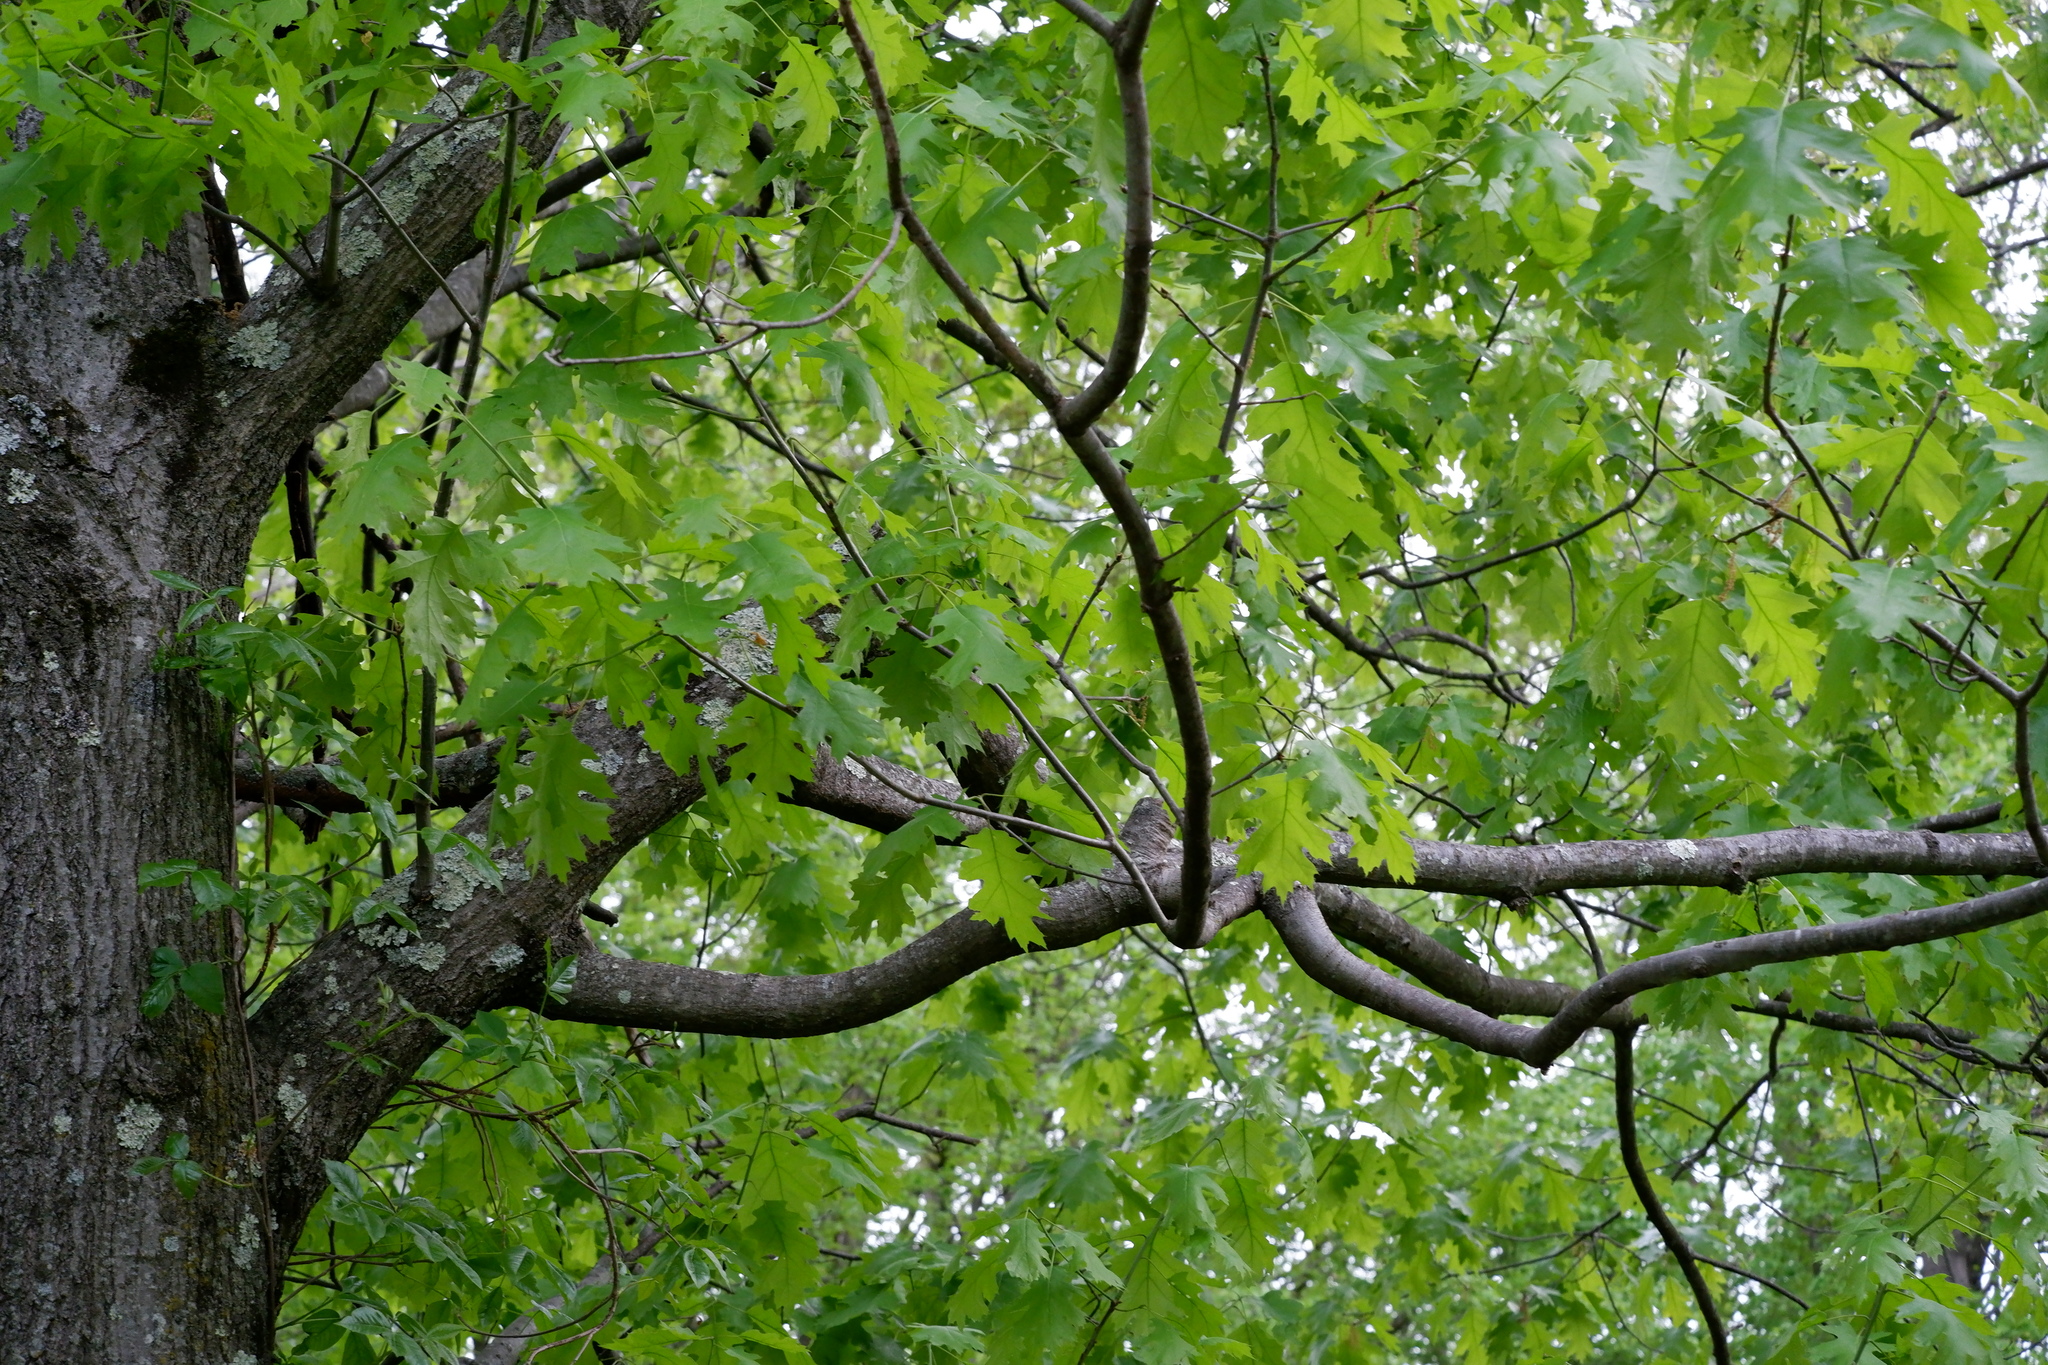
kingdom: Plantae
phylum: Tracheophyta
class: Magnoliopsida
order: Fagales
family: Fagaceae
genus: Quercus
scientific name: Quercus rubra
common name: Red oak
